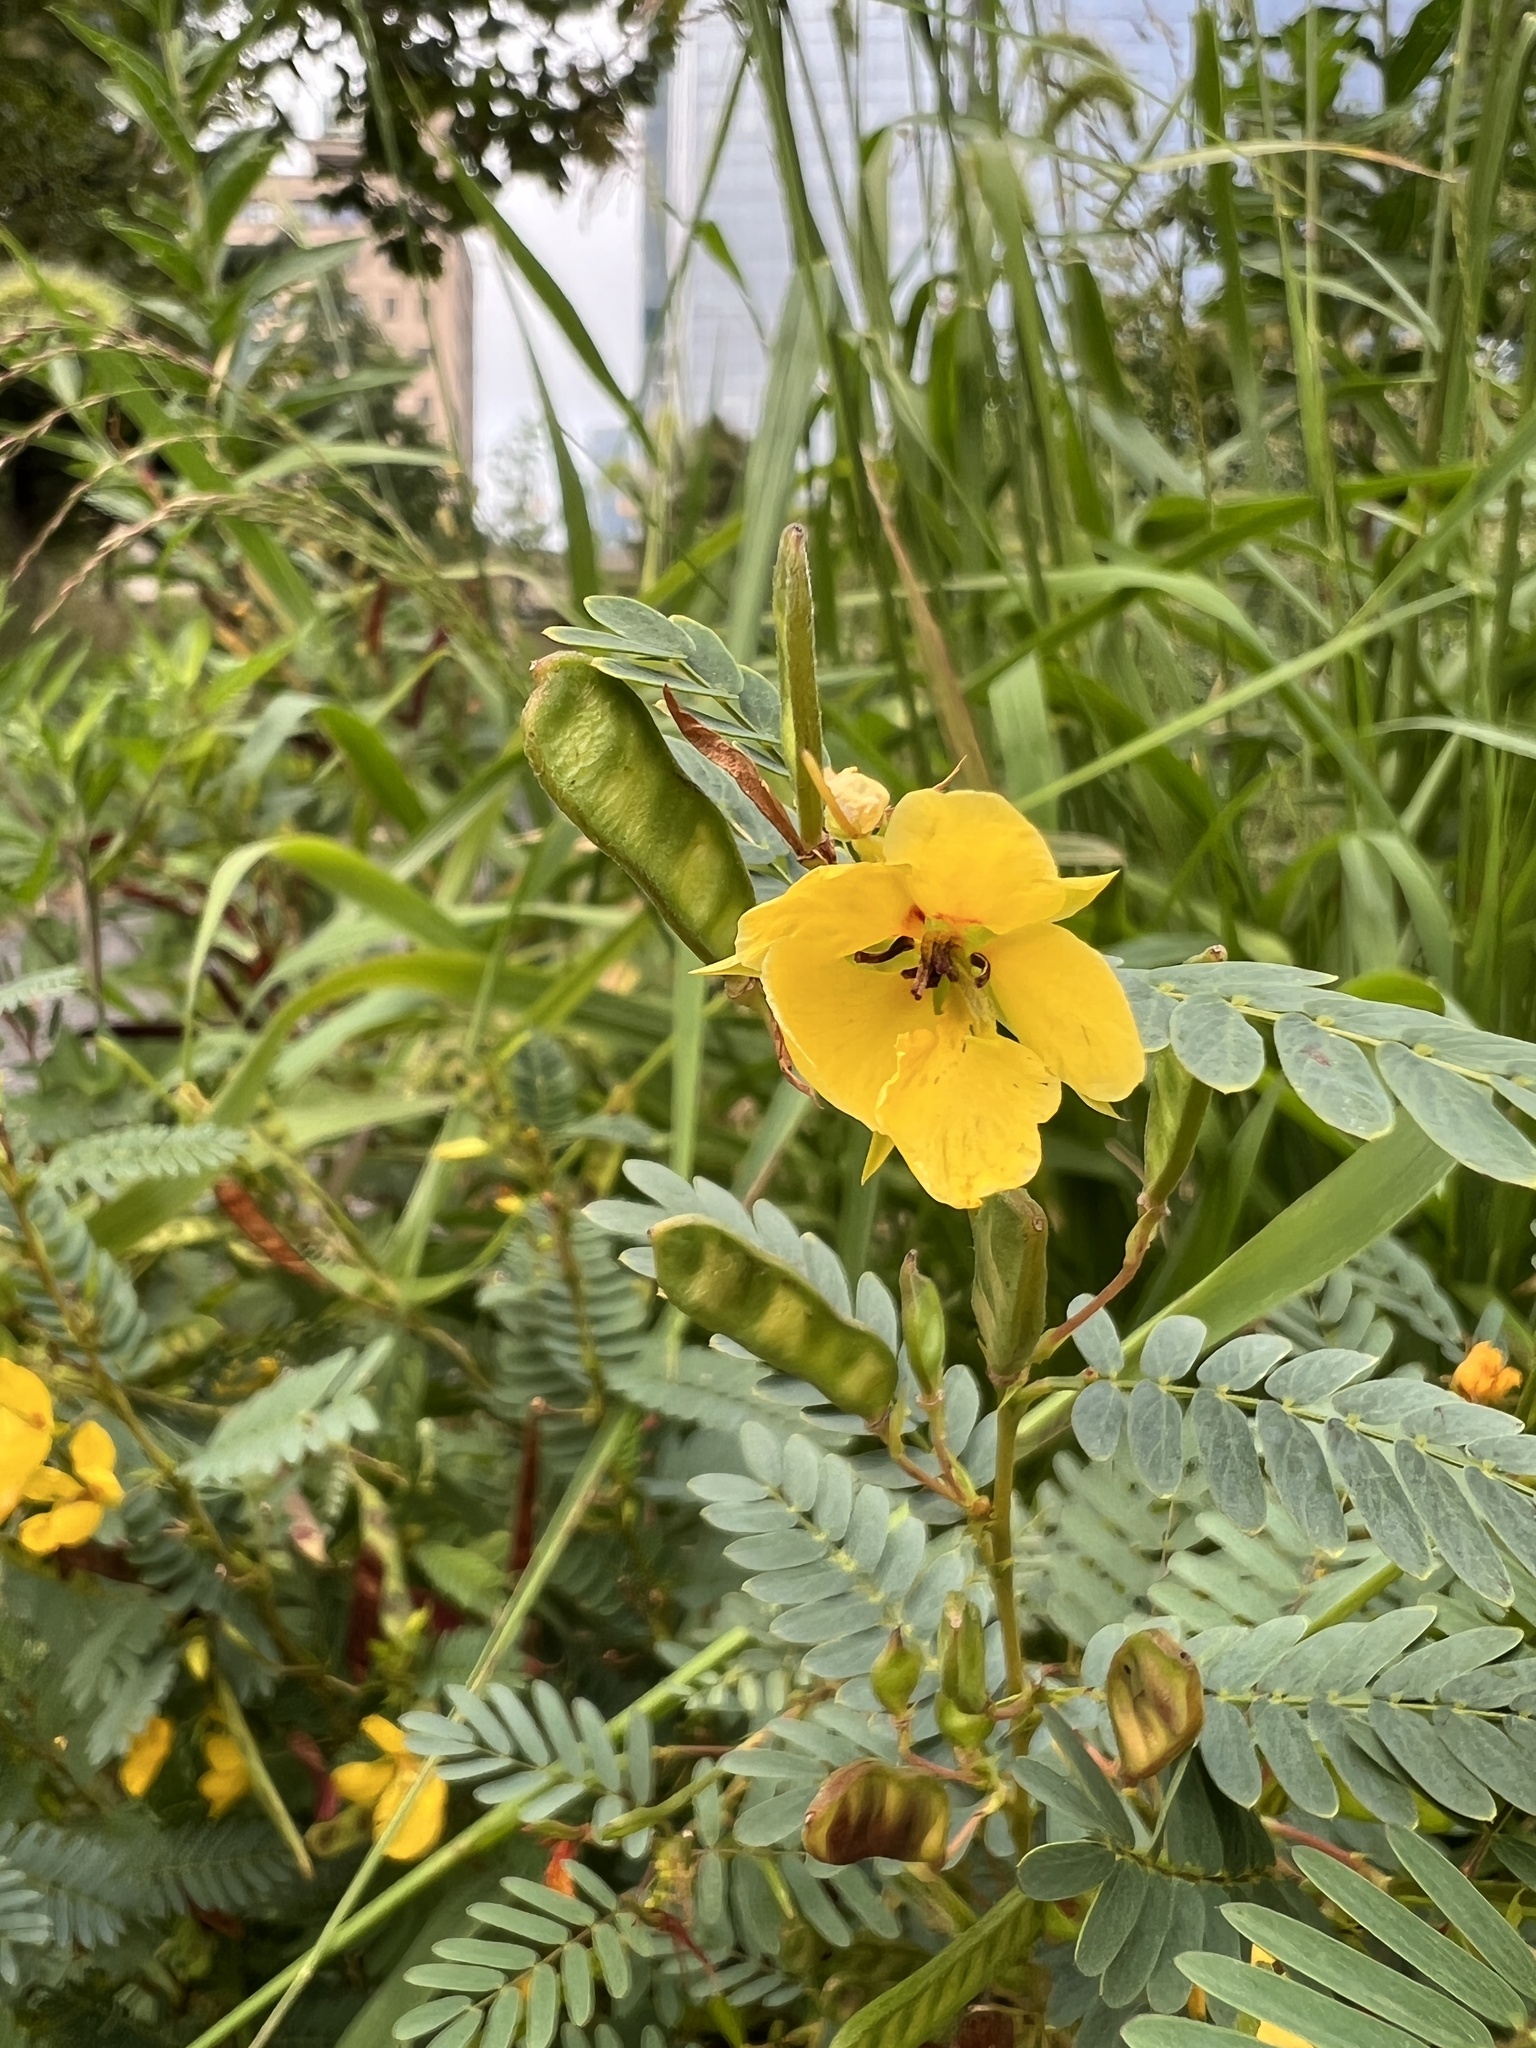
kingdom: Plantae
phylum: Tracheophyta
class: Magnoliopsida
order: Fabales
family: Fabaceae
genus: Chamaecrista
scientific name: Chamaecrista fasciculata
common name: Golden cassia
